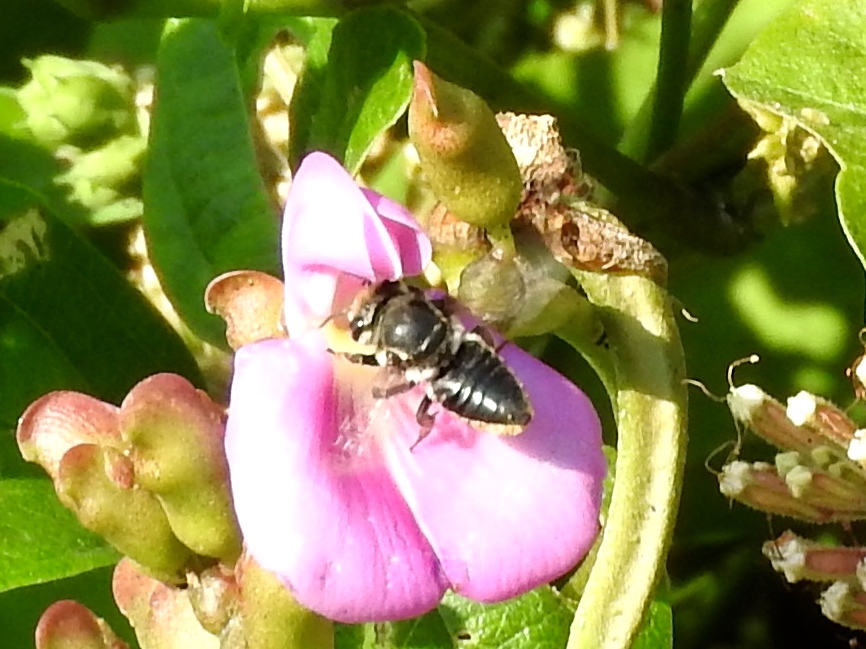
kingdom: Animalia
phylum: Arthropoda
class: Insecta
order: Hymenoptera
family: Megachilidae
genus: Megachile
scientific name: Megachile
